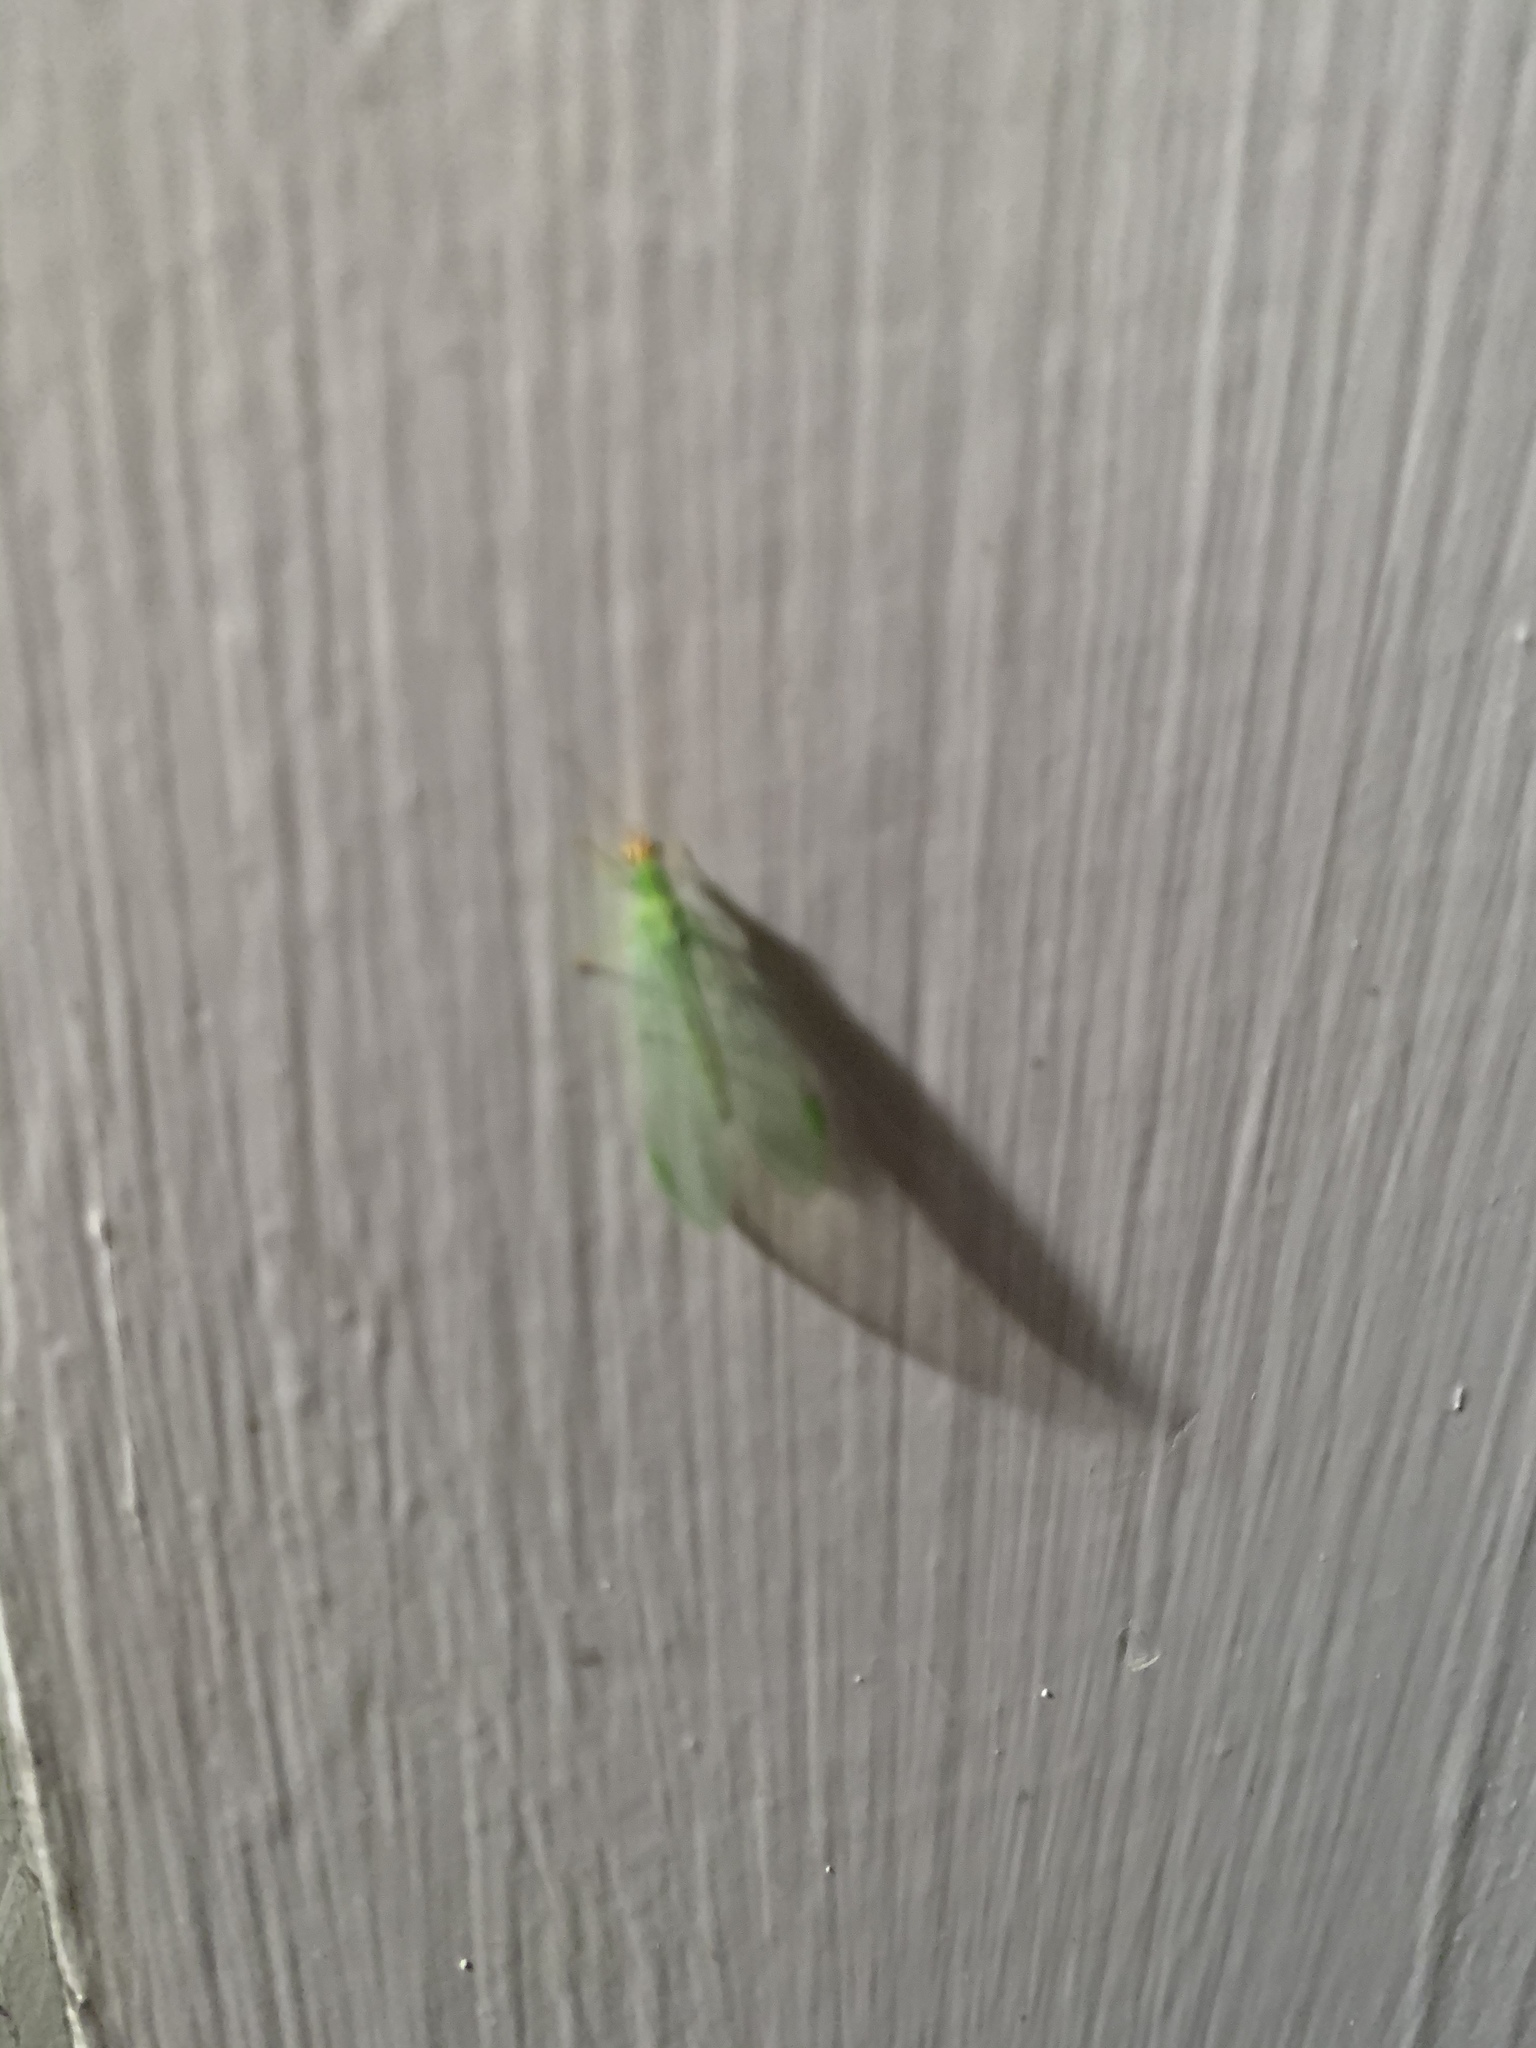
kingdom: Animalia
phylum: Arthropoda
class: Insecta
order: Neuroptera
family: Chrysopidae
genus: Chrysopa
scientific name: Chrysopa oculata
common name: Golden-eyed lacewing
